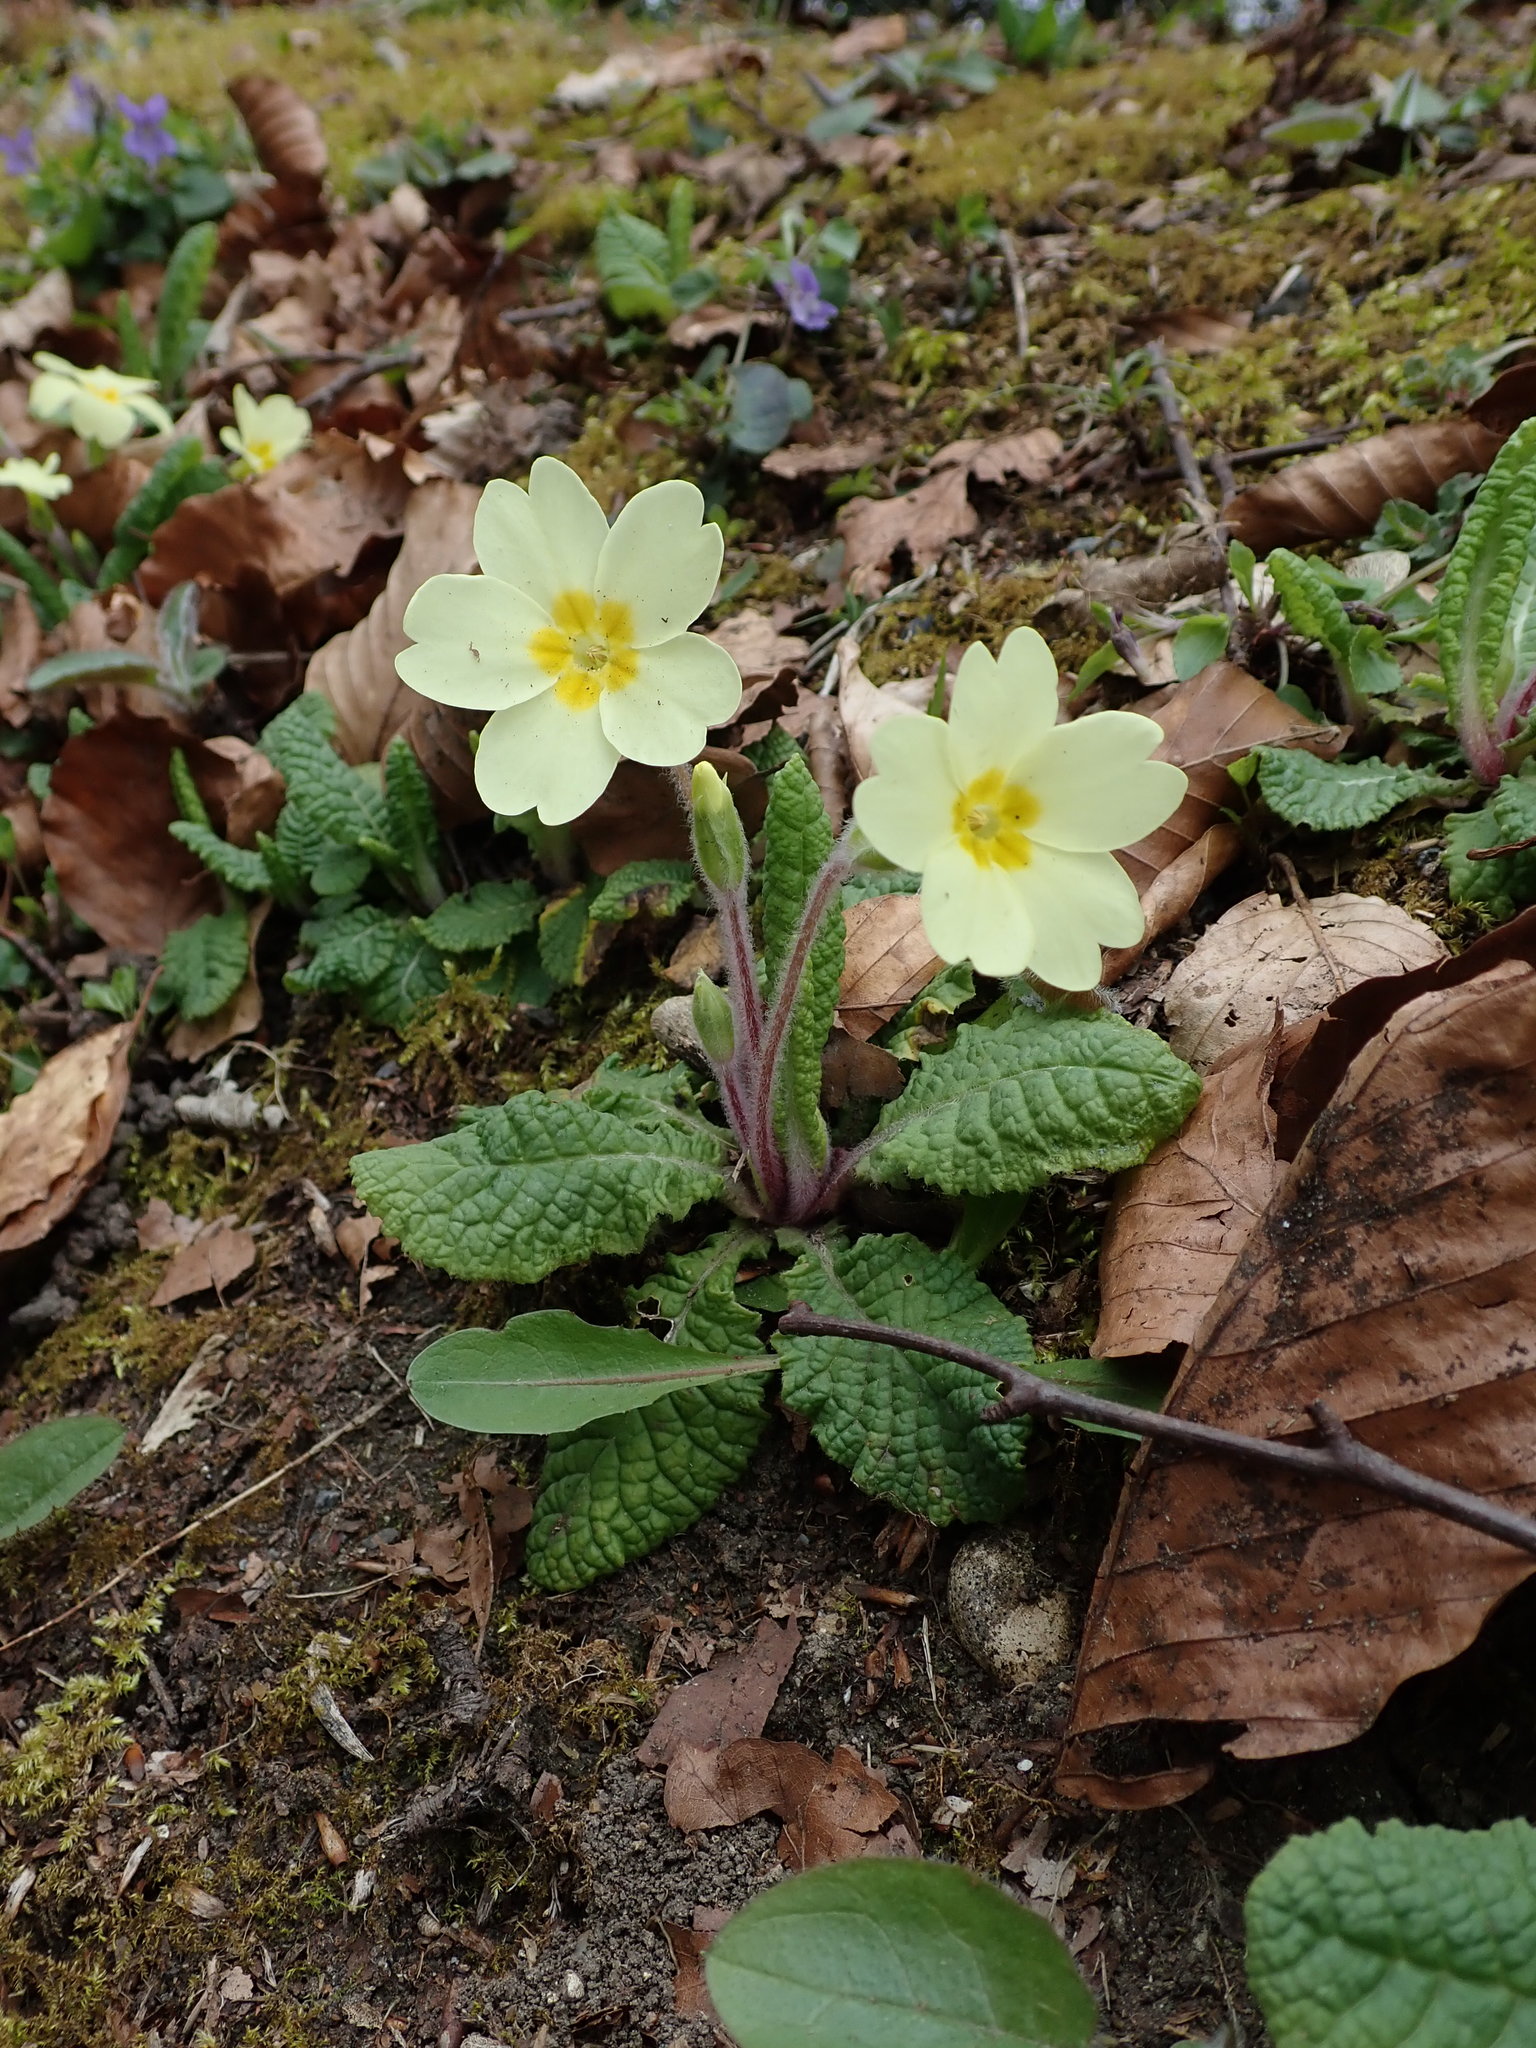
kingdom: Plantae
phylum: Tracheophyta
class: Magnoliopsida
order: Ericales
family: Primulaceae
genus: Primula
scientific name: Primula vulgaris
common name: Primrose
